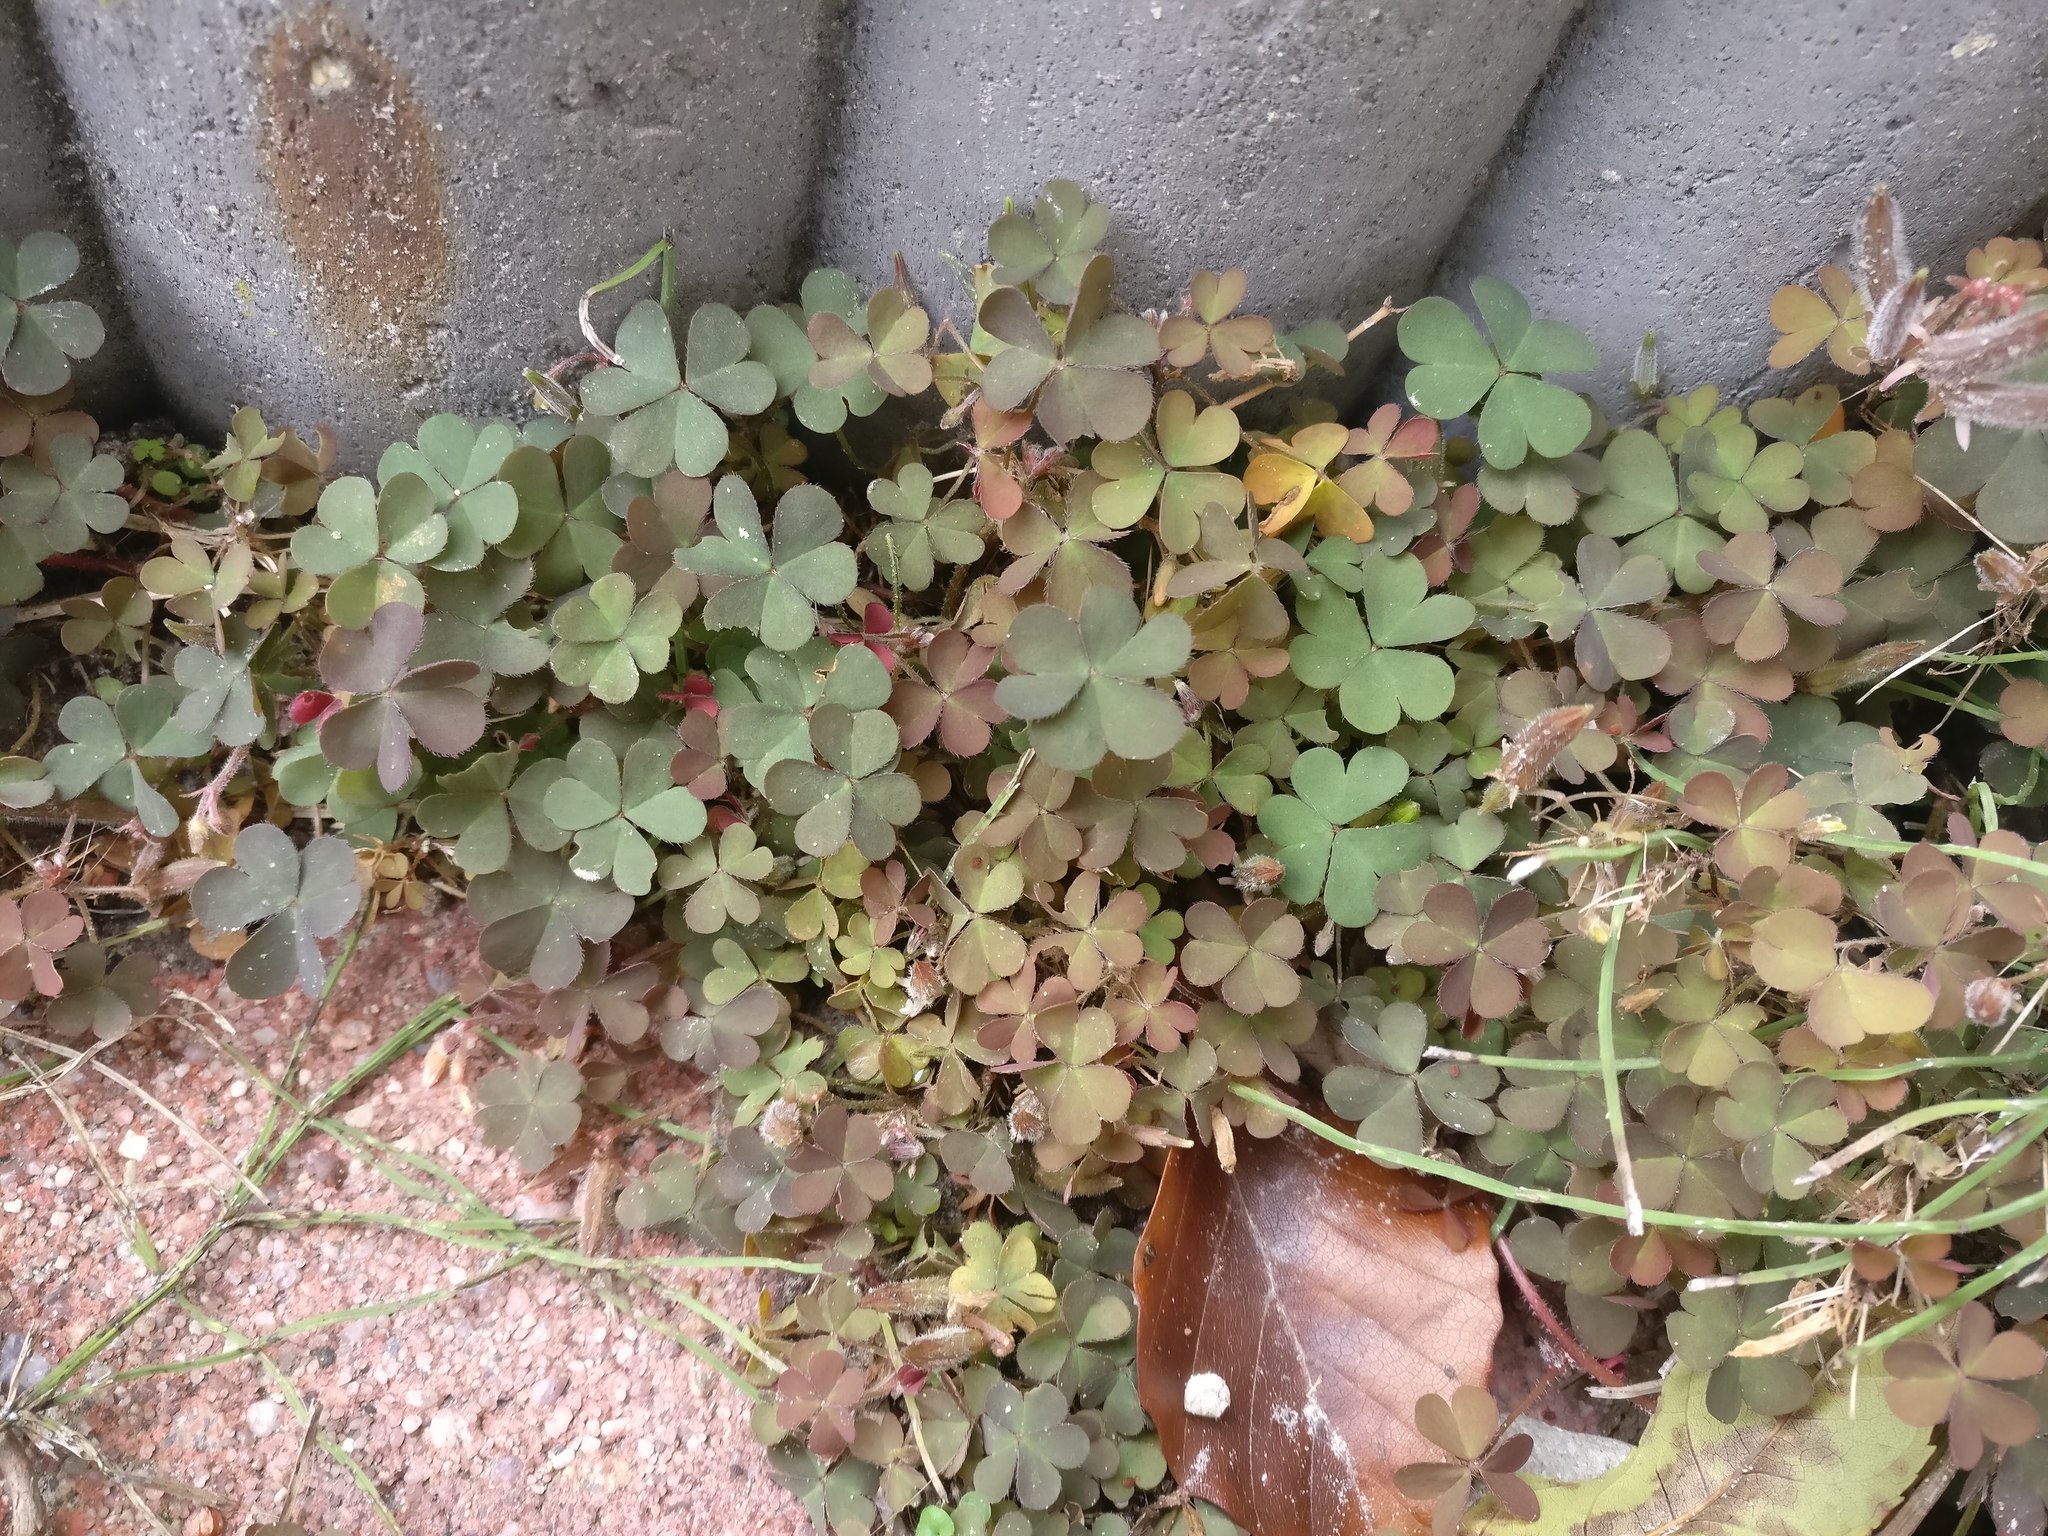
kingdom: Plantae
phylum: Tracheophyta
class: Magnoliopsida
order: Oxalidales
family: Oxalidaceae
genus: Oxalis
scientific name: Oxalis corniculata
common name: Procumbent yellow-sorrel
